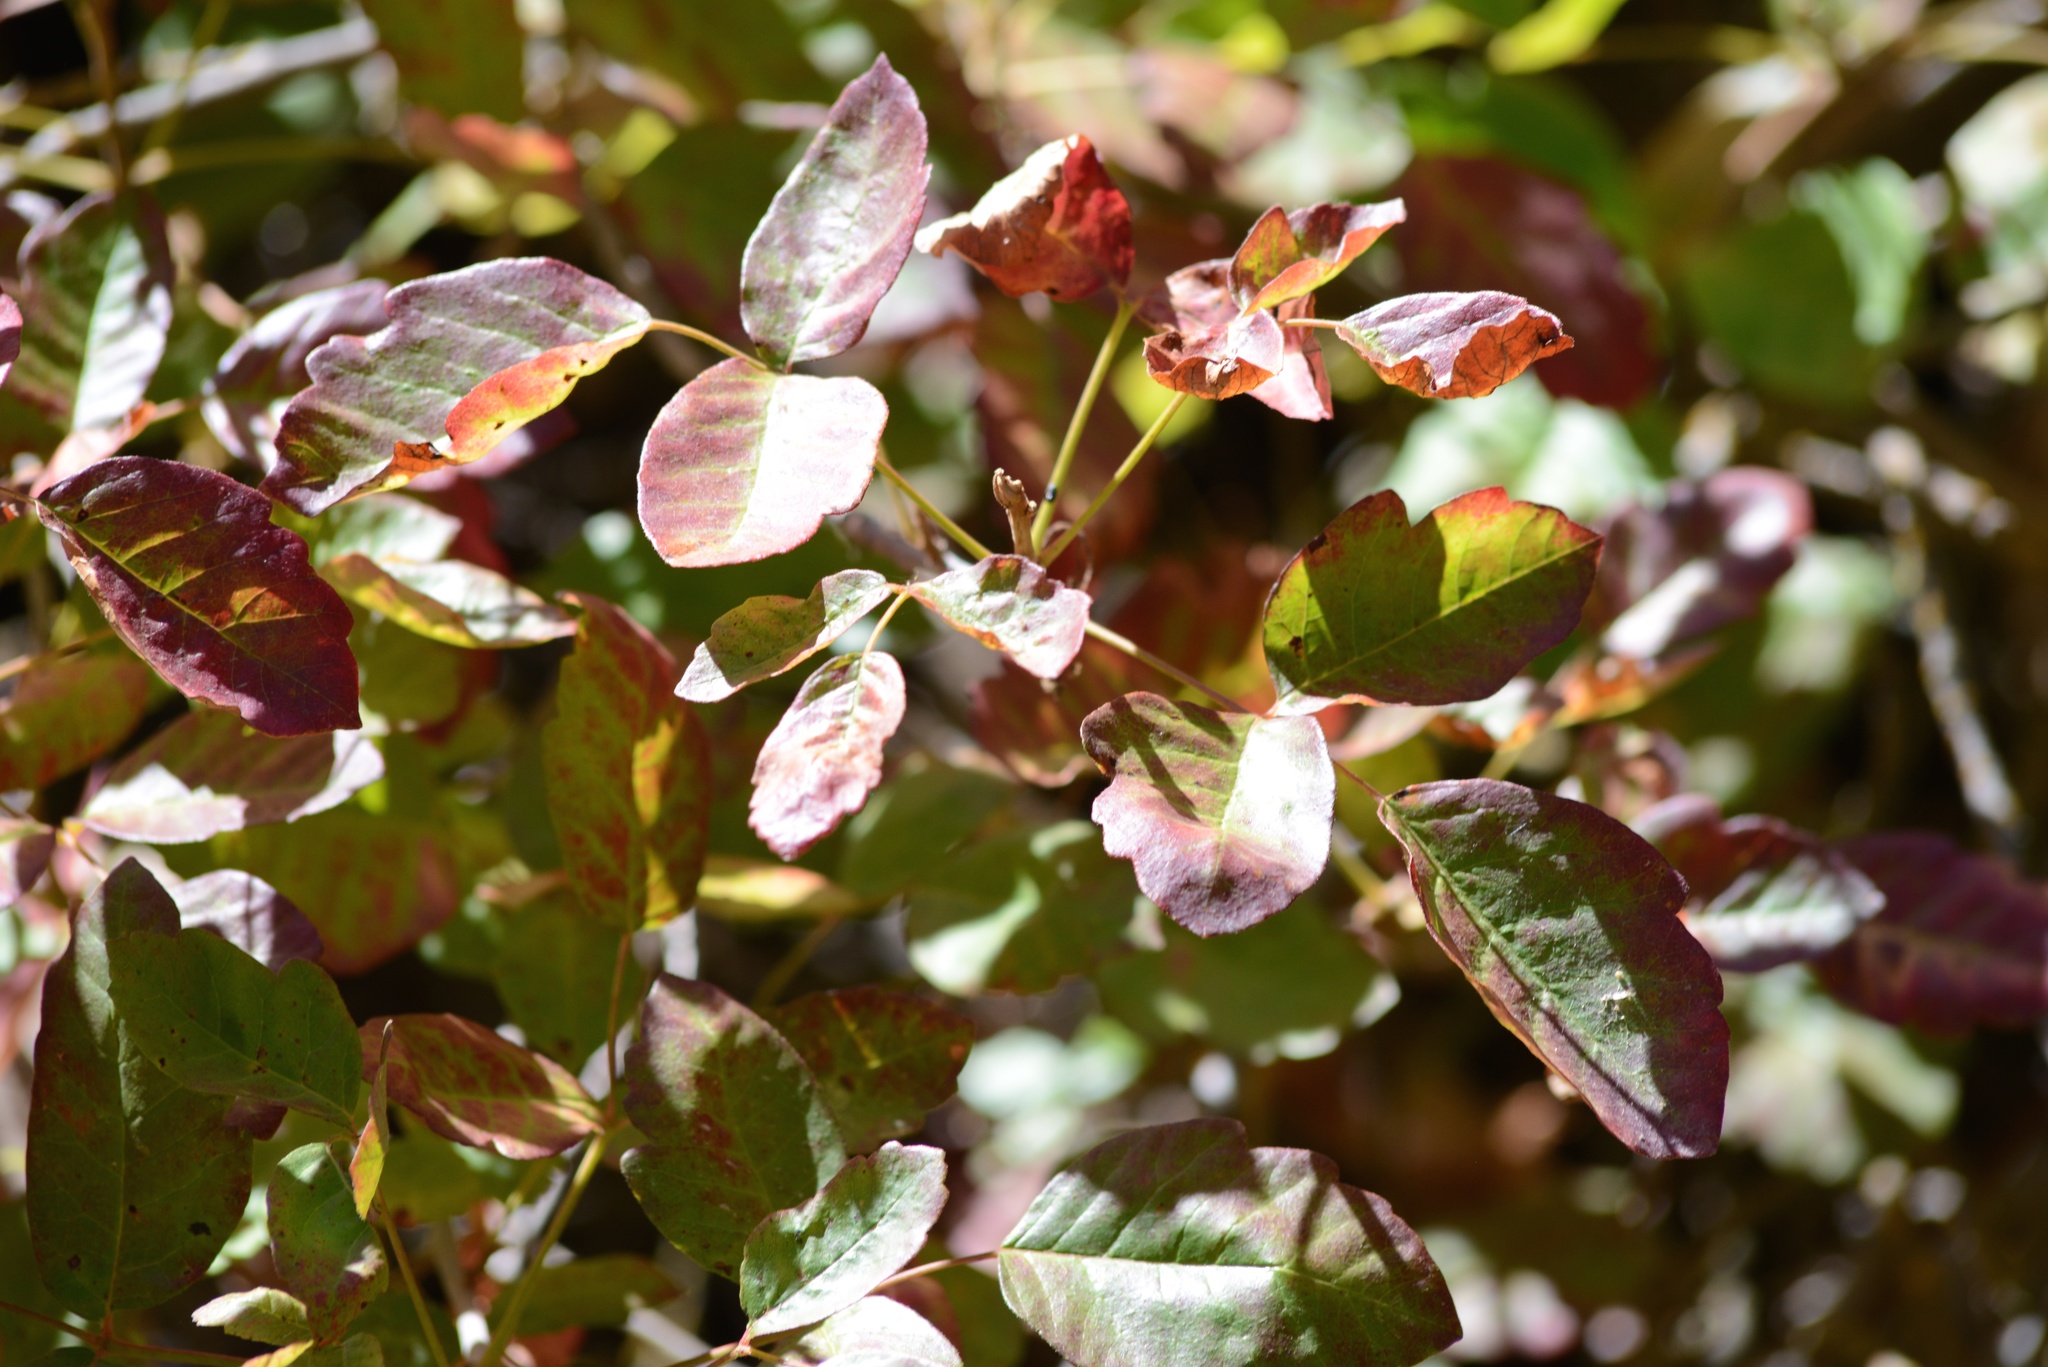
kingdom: Plantae
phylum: Tracheophyta
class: Magnoliopsida
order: Sapindales
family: Anacardiaceae
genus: Toxicodendron
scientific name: Toxicodendron diversilobum
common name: Pacific poison-oak
